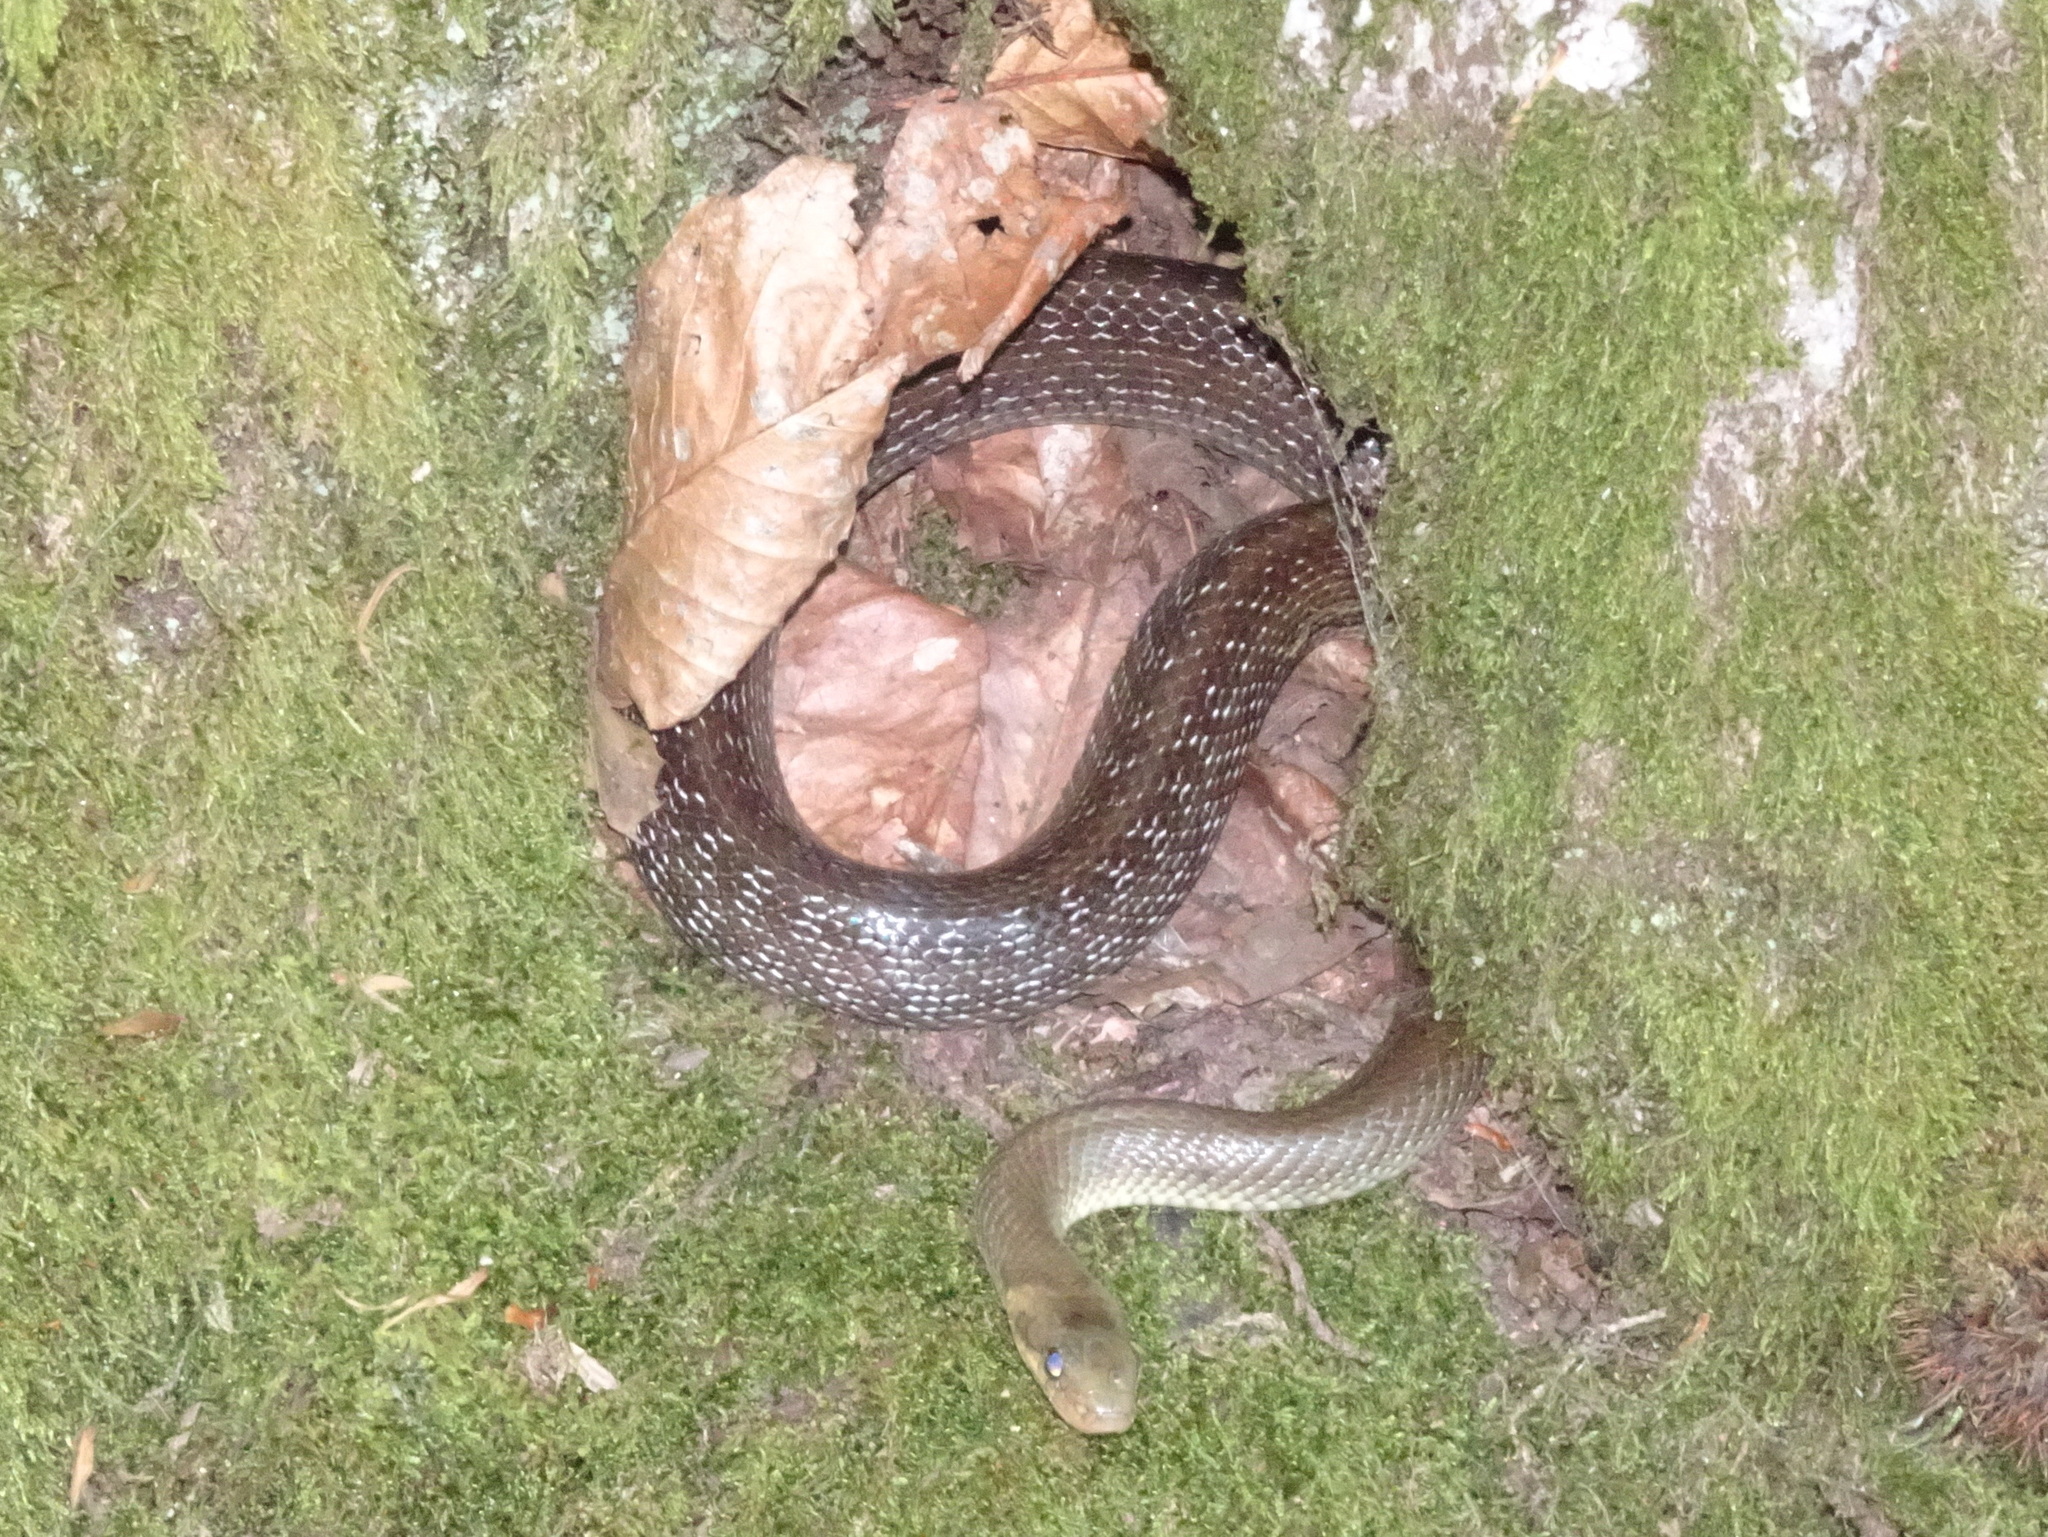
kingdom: Animalia
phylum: Chordata
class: Squamata
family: Colubridae
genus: Zamenis
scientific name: Zamenis longissimus
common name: Aesculapean snake
